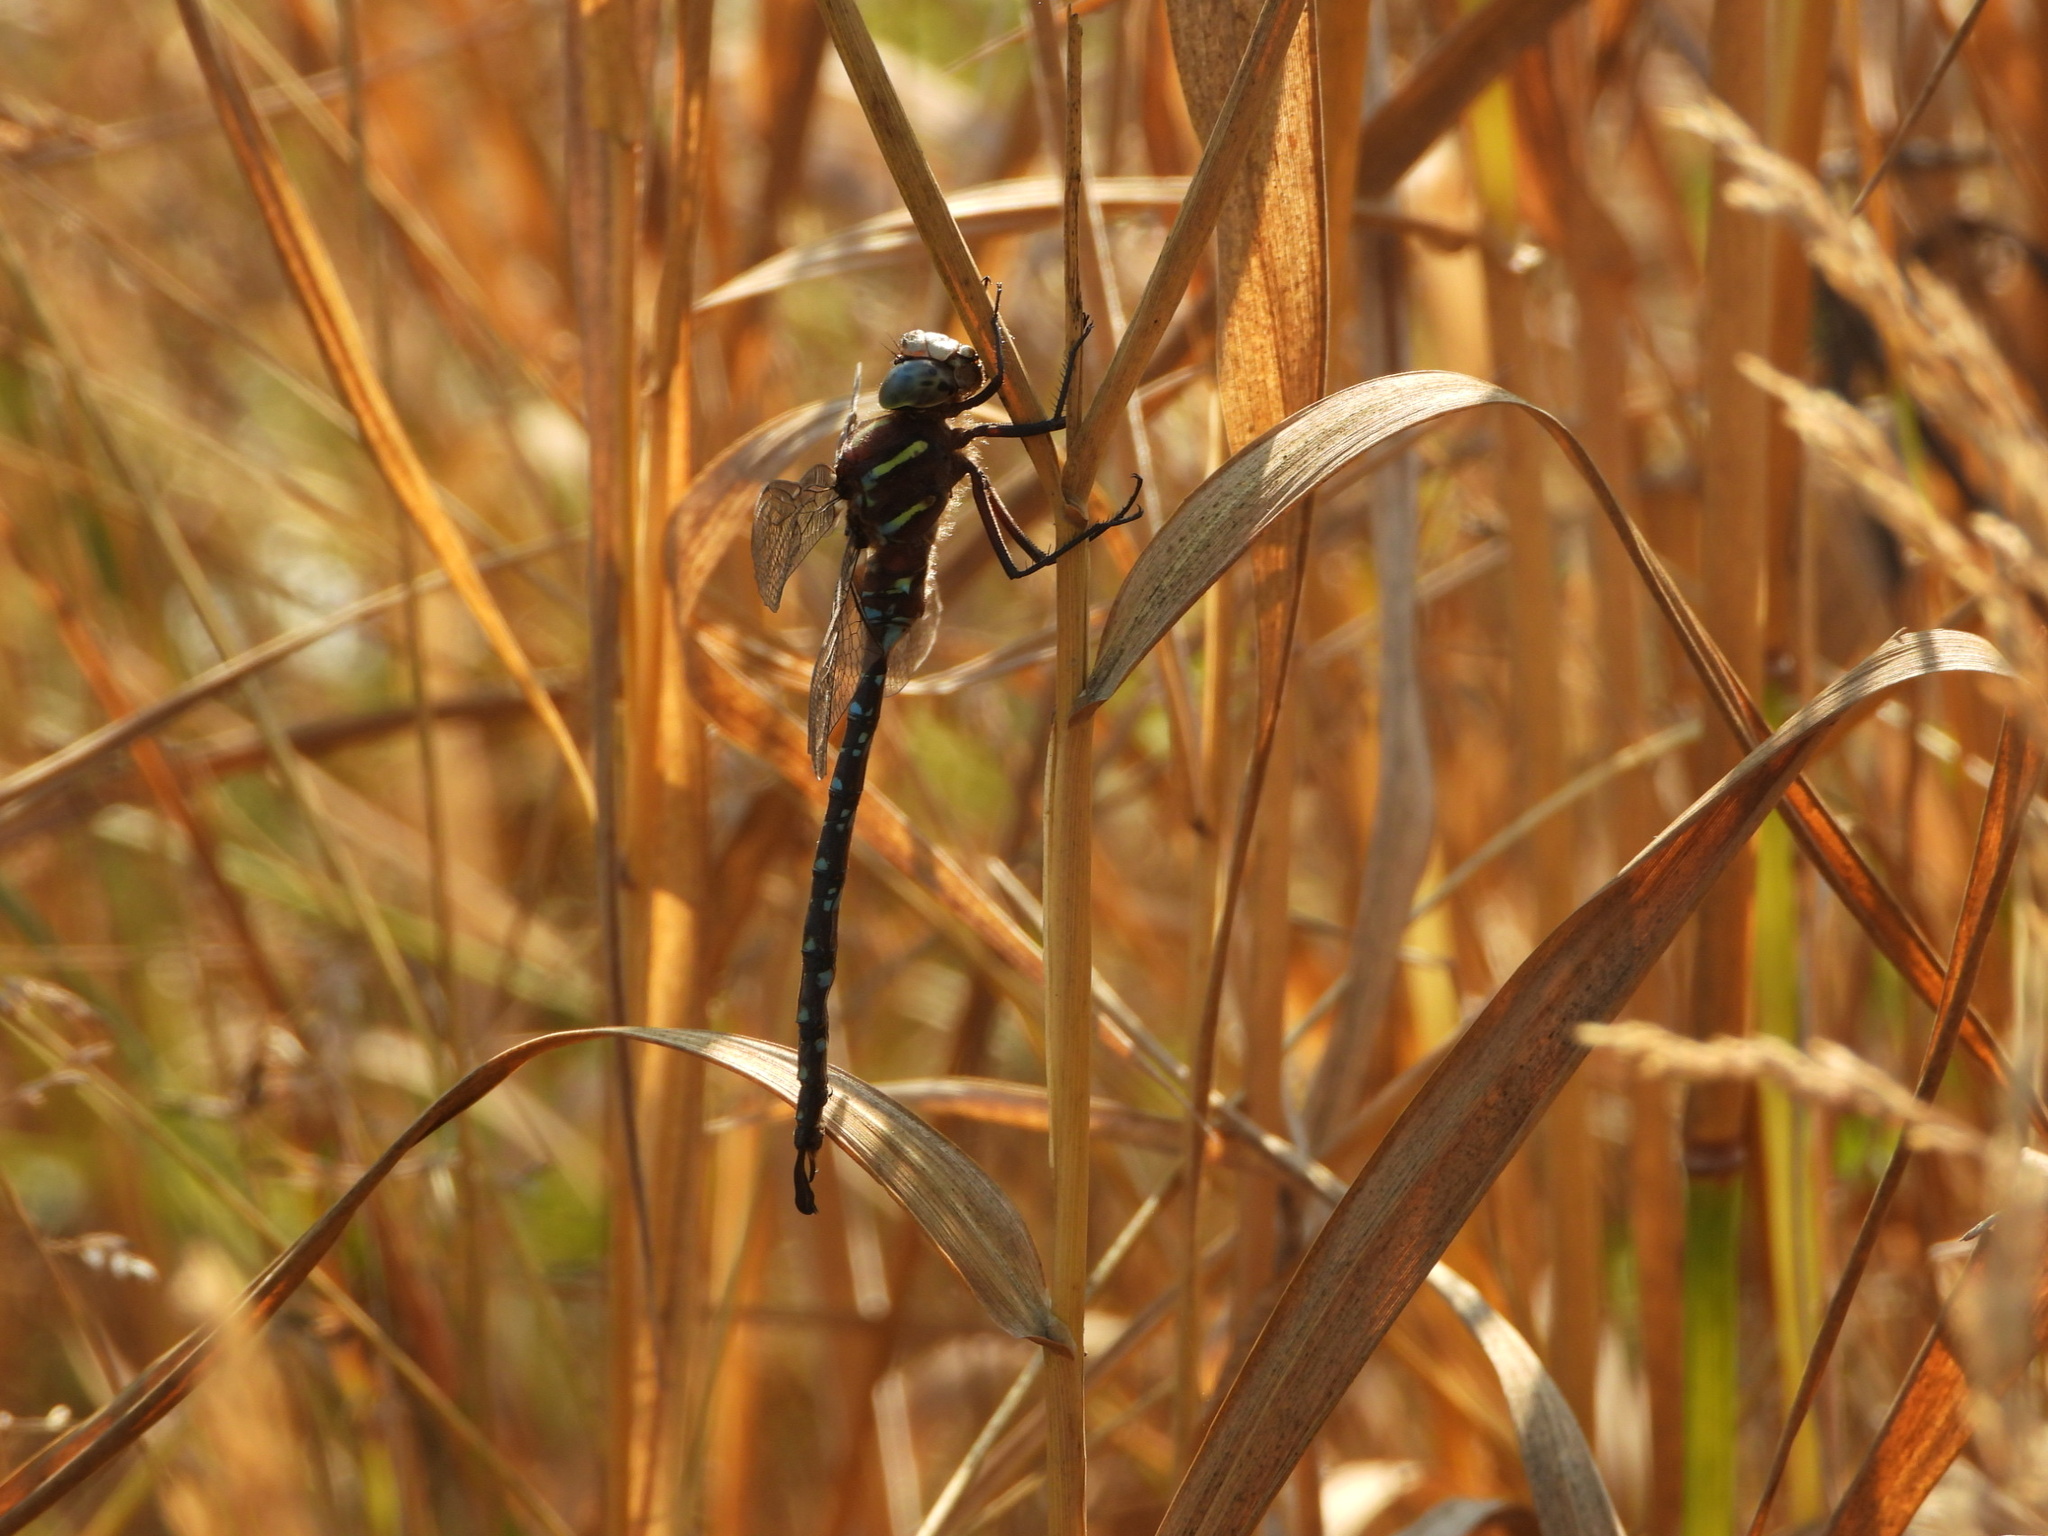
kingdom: Animalia
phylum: Arthropoda
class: Insecta
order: Odonata
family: Aeshnidae
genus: Aeshna
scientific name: Aeshna umbrosa
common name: Shadow darner
